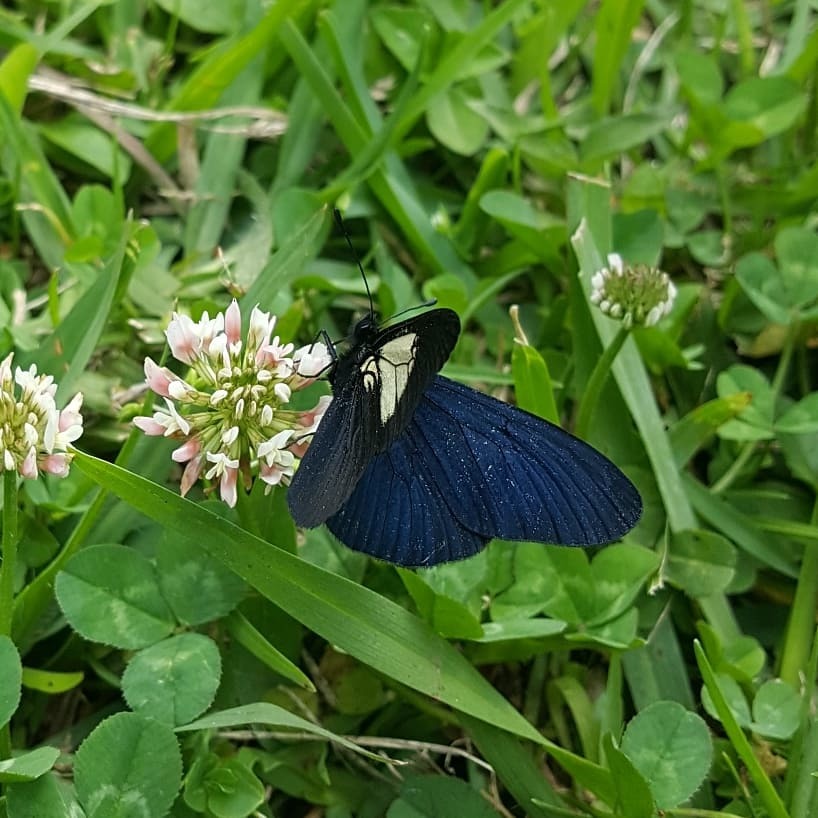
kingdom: Animalia
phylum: Arthropoda
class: Insecta
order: Lepidoptera
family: Nymphalidae
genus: Acraea
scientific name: Acraea Altinote ozomene
